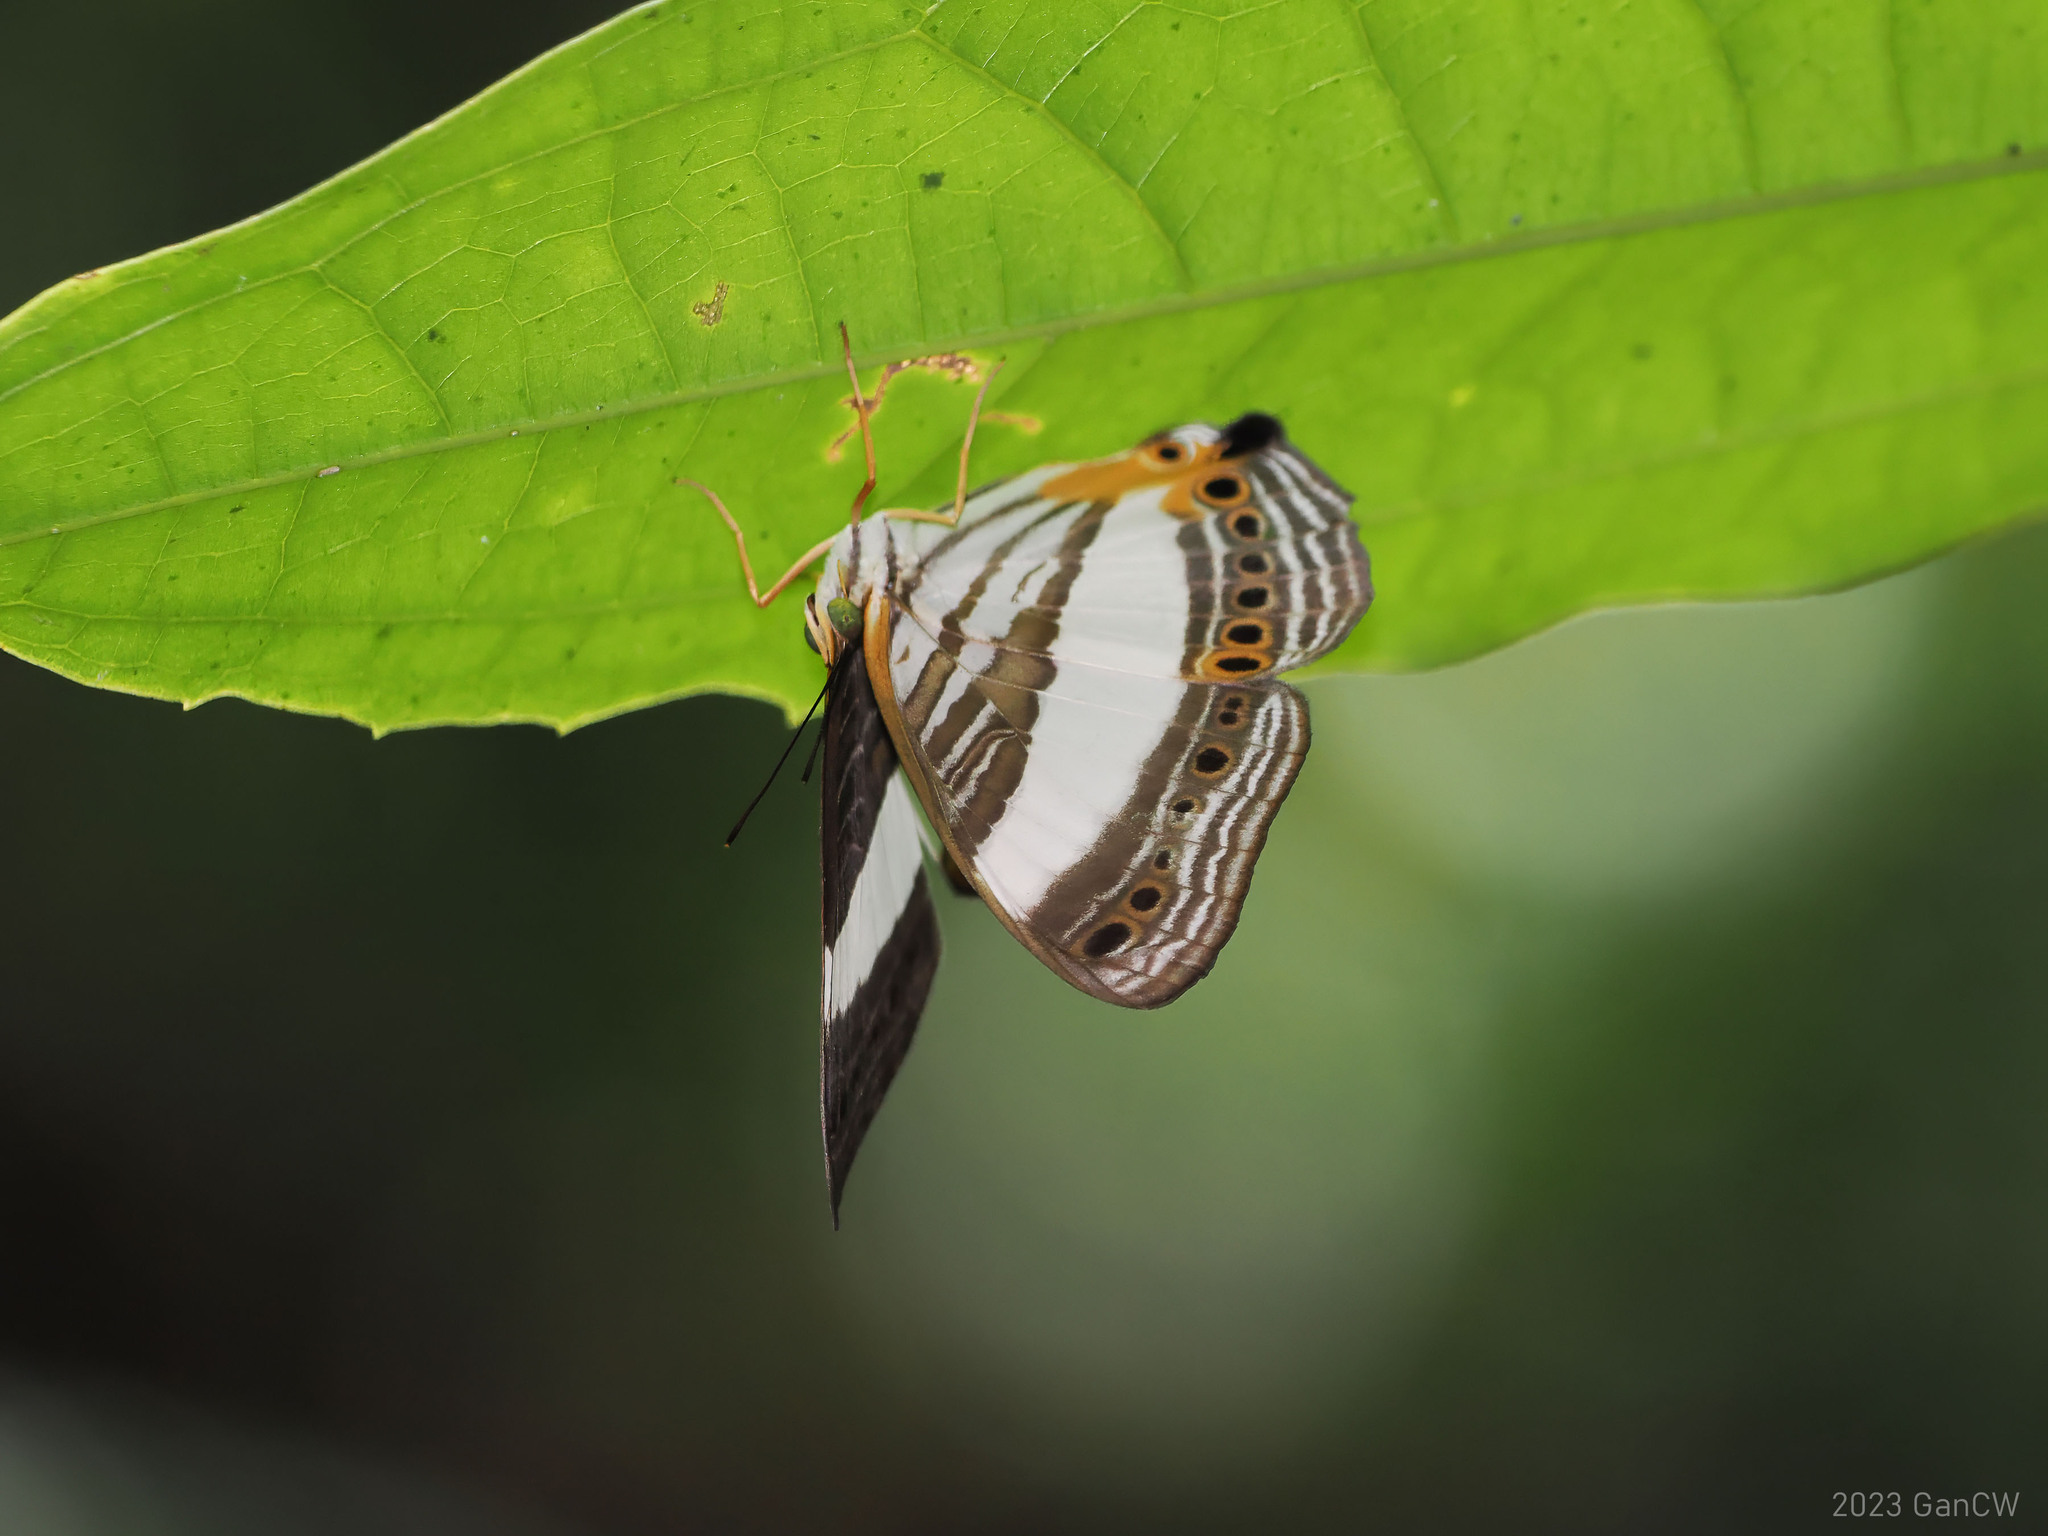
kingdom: Animalia
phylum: Arthropoda
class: Insecta
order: Lepidoptera
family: Nymphalidae
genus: Cyrestis
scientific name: Cyrestis acilia
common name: Godart's map butterfly
